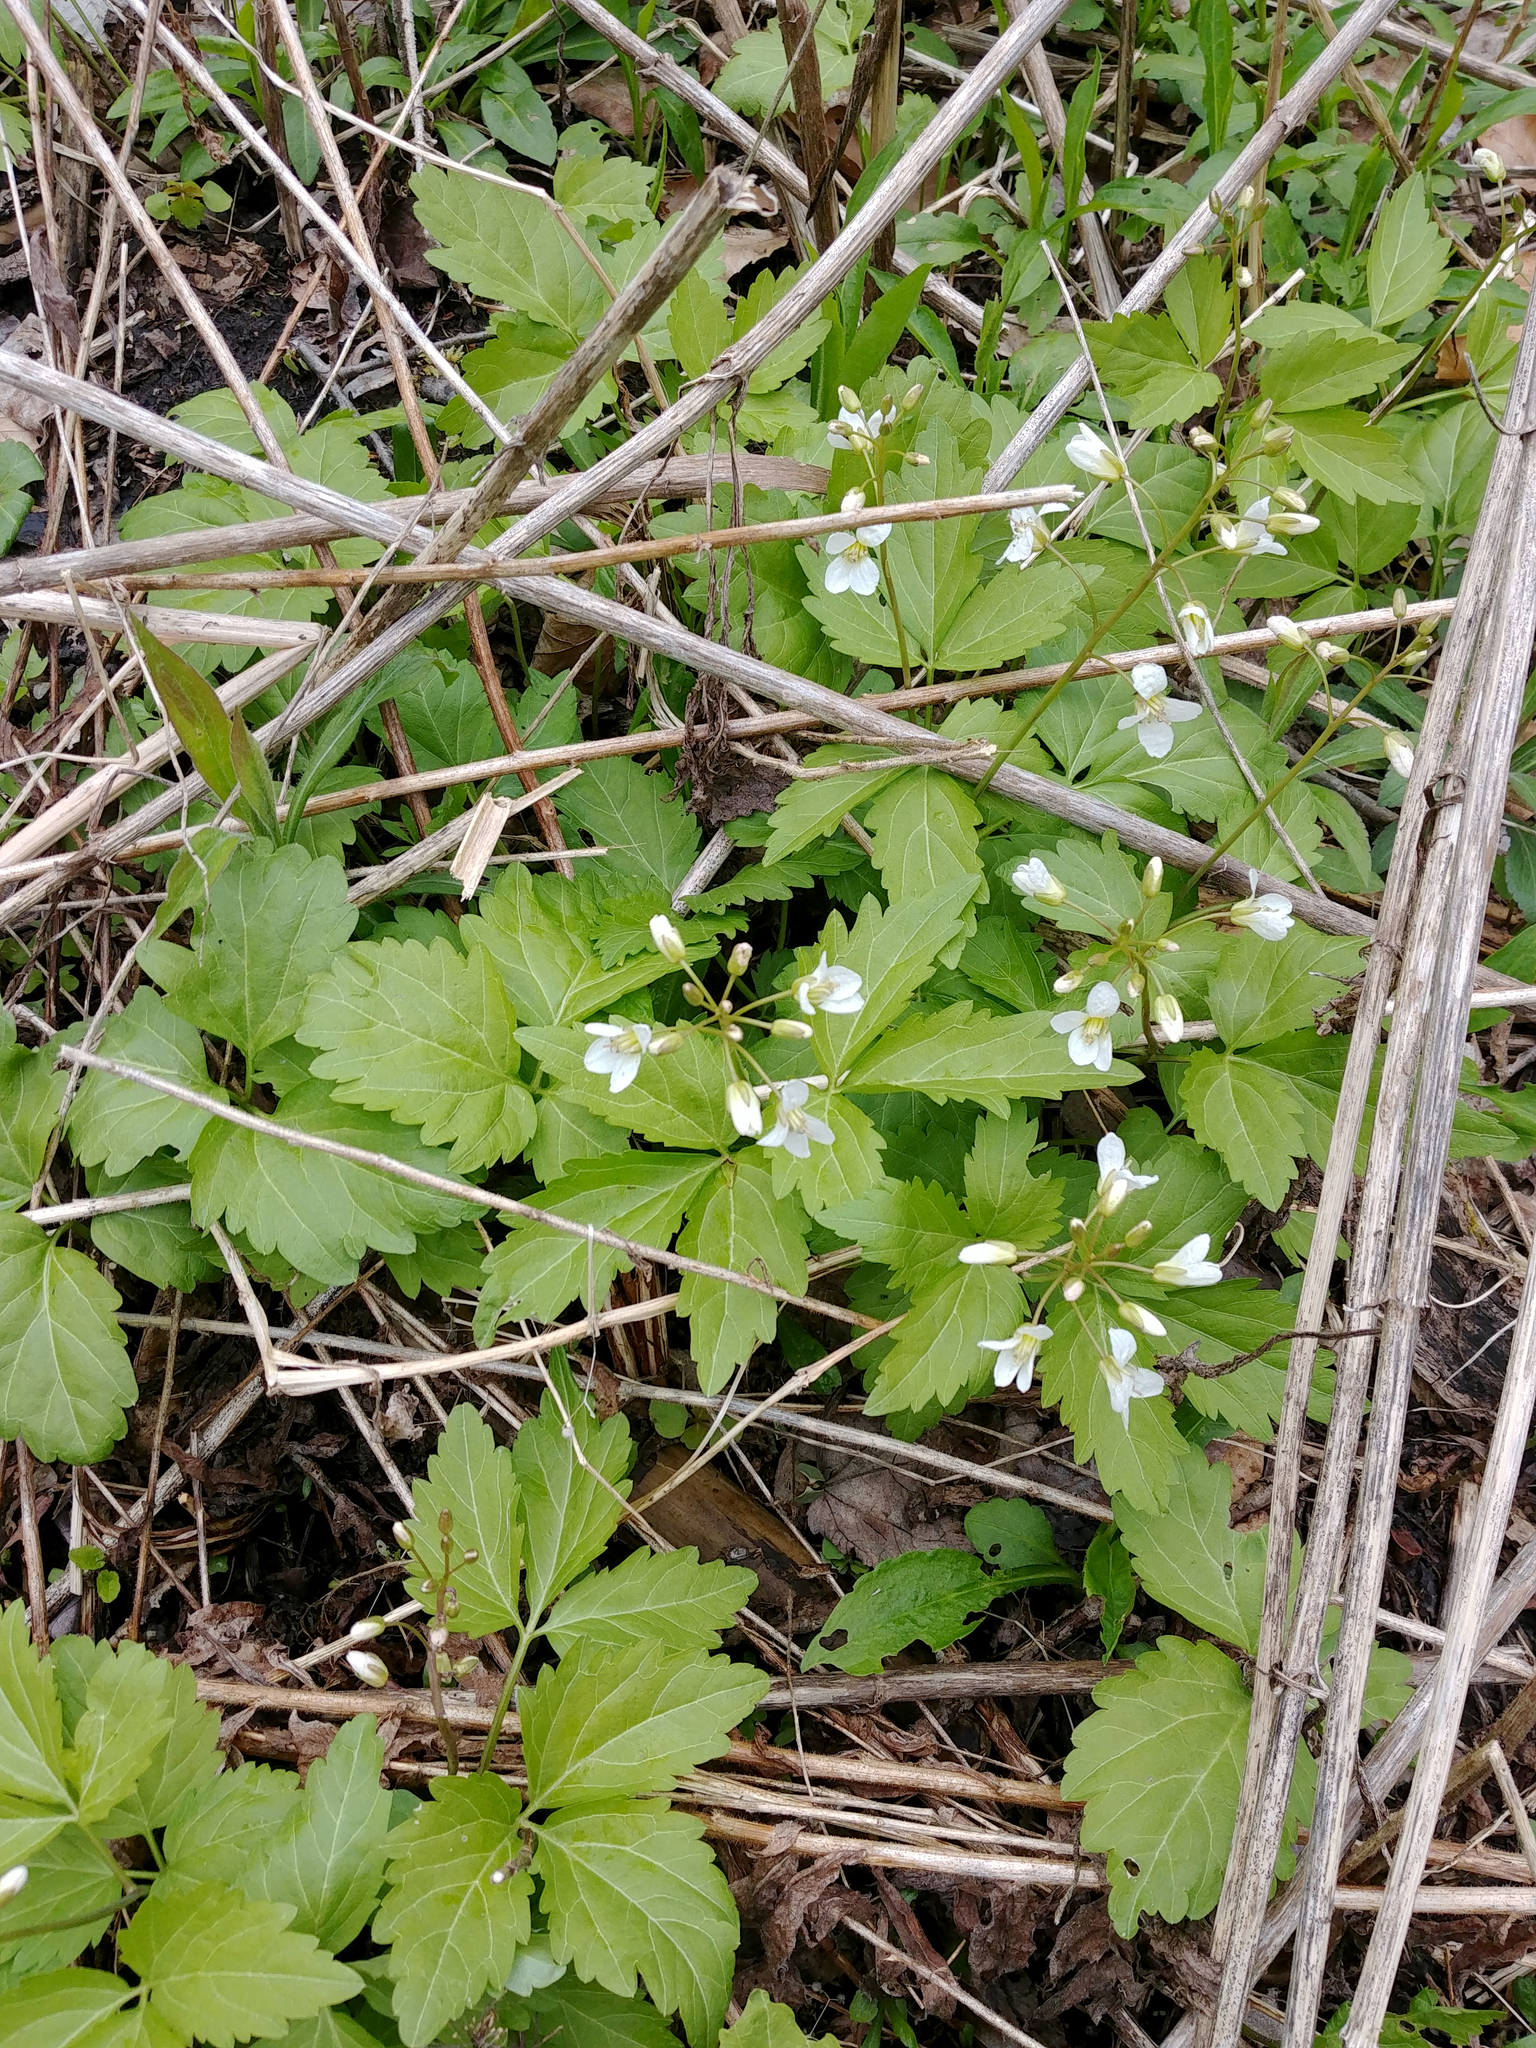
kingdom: Plantae
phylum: Tracheophyta
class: Magnoliopsida
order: Brassicales
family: Brassicaceae
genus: Cardamine
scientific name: Cardamine diphylla
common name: Broad-leaved toothwort
